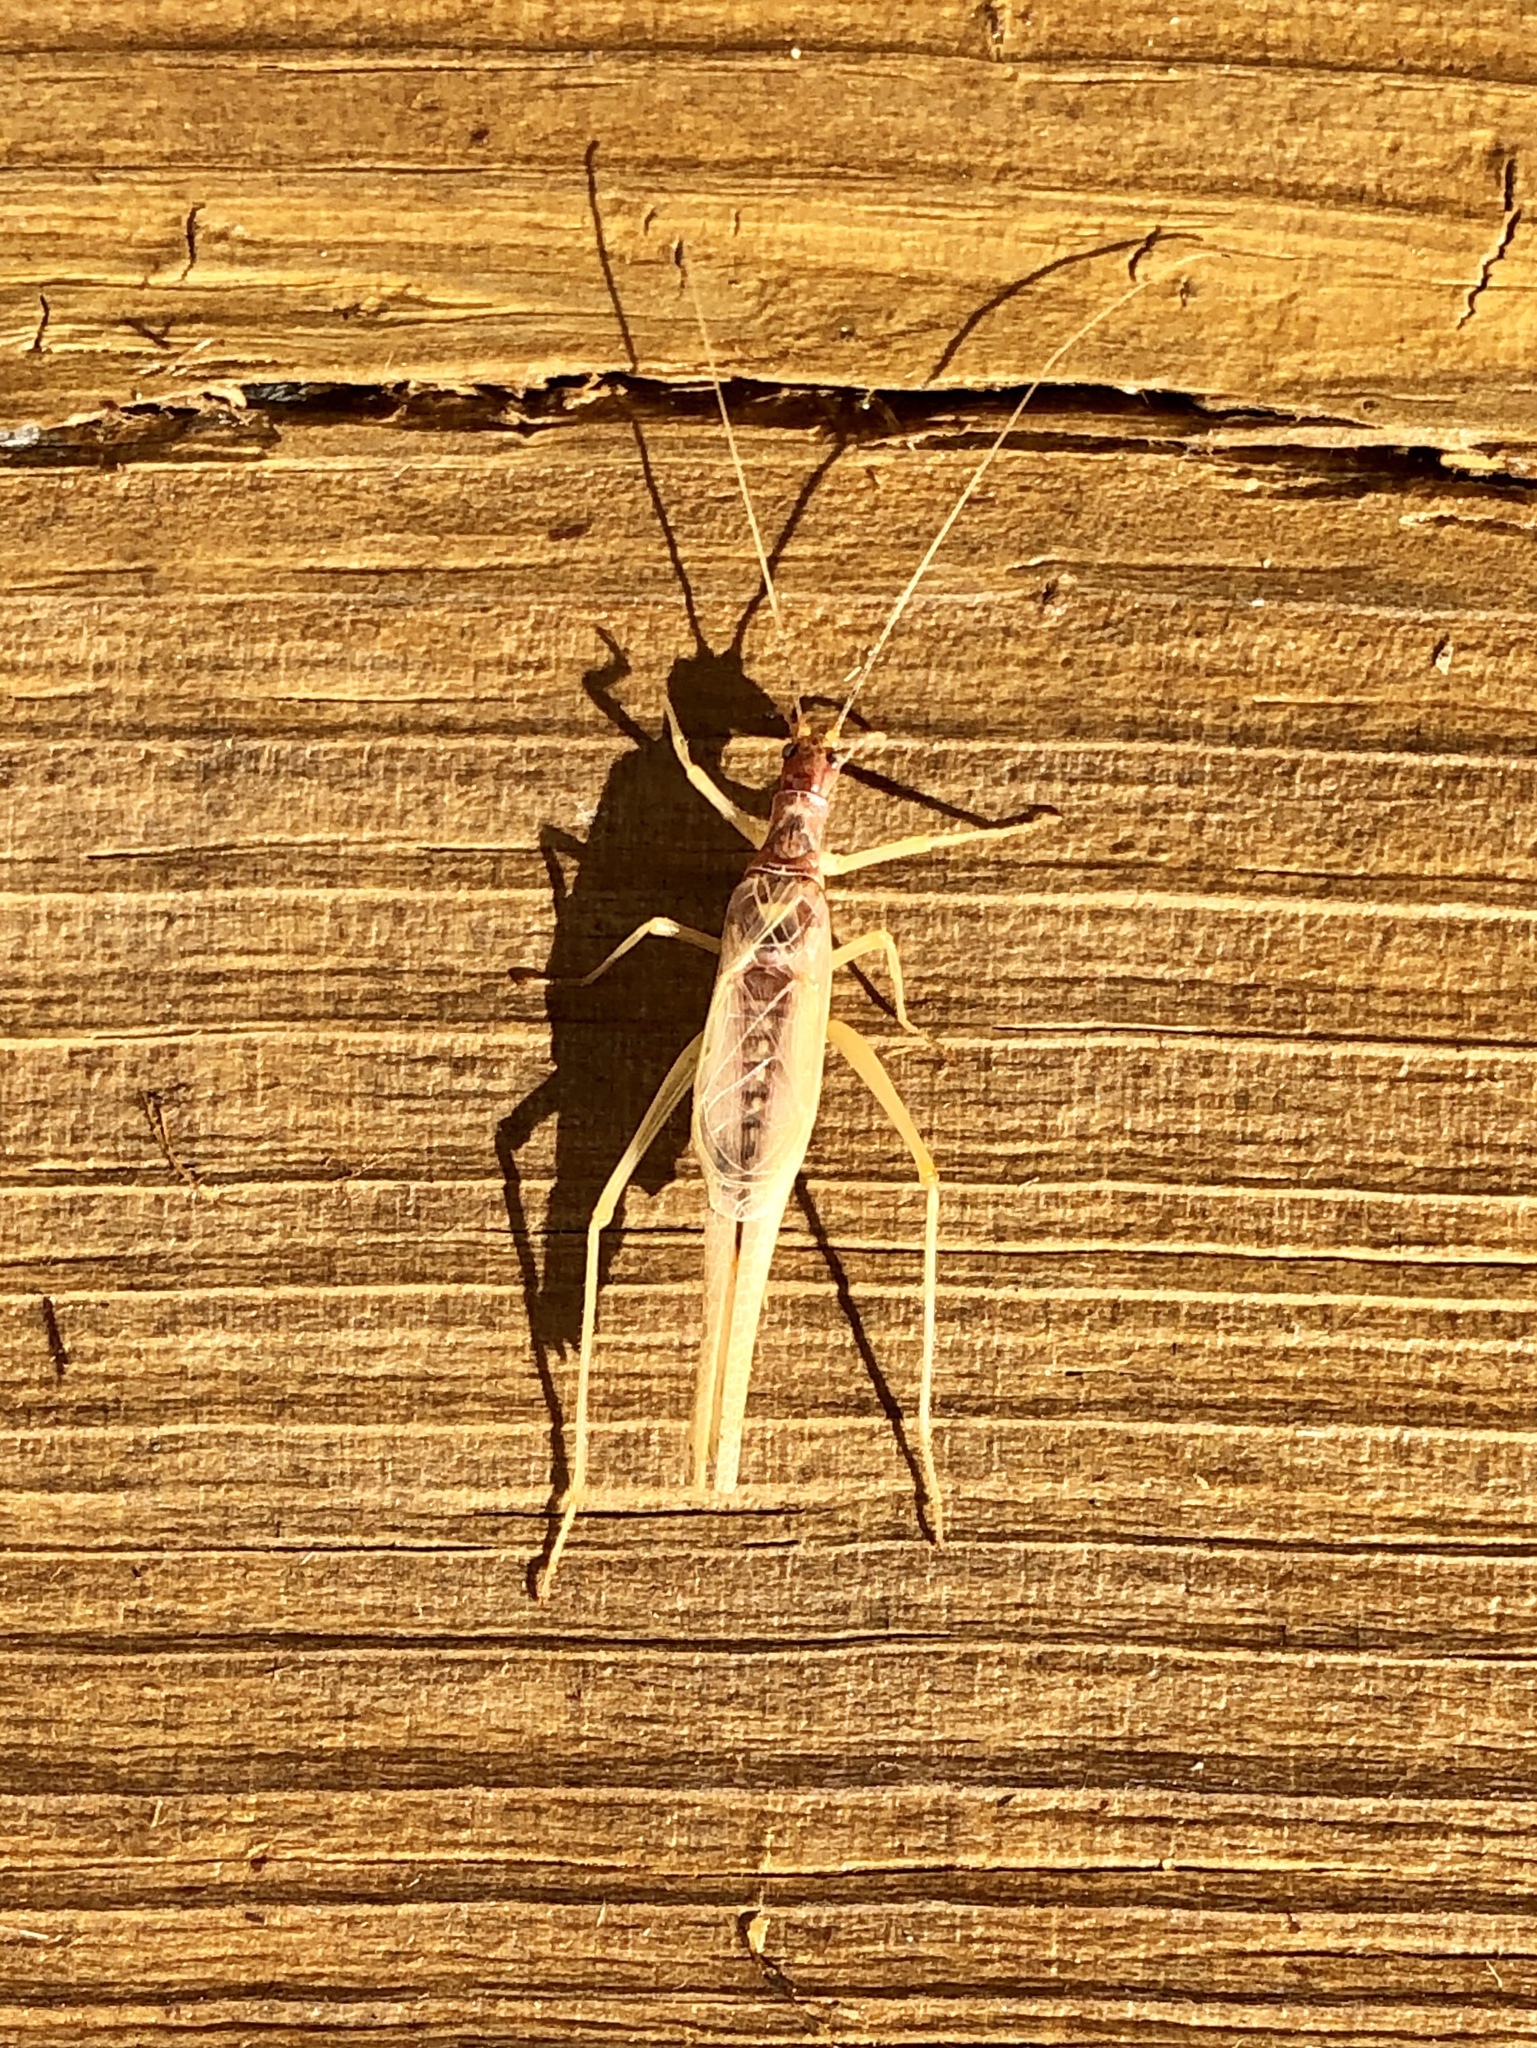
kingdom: Animalia
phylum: Arthropoda
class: Insecta
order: Orthoptera
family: Gryllidae
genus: Neoxabea
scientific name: Neoxabea bipunctata
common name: Two-spotted tree cricket
